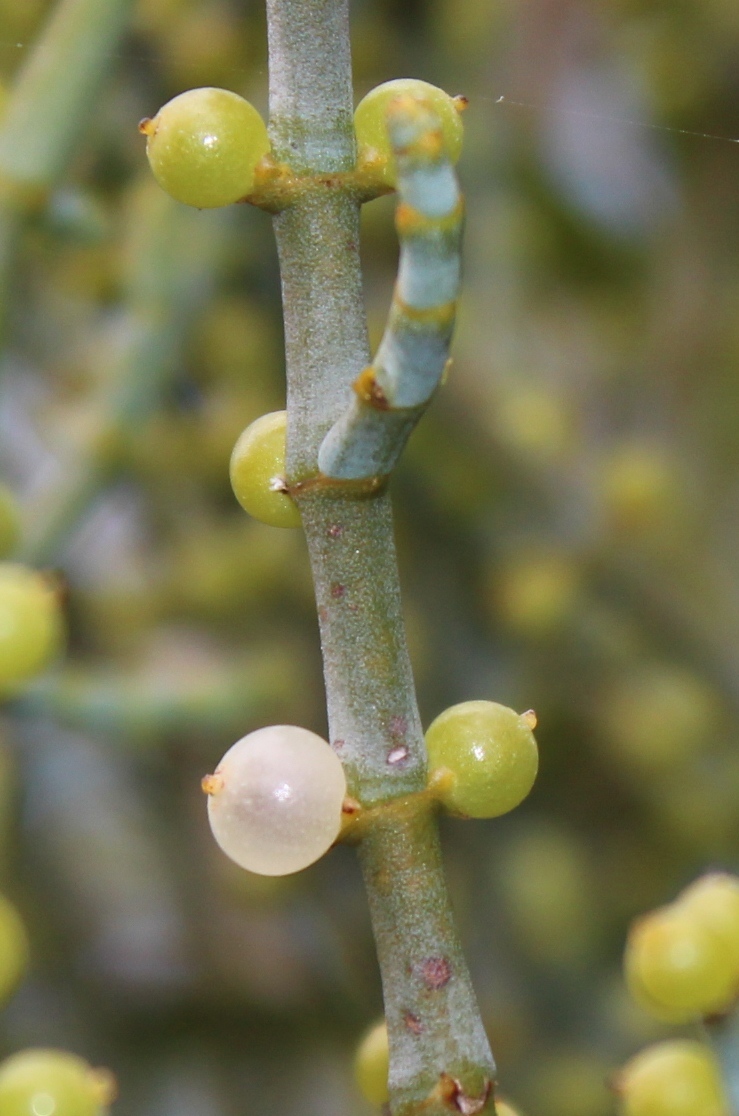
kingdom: Plantae
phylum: Tracheophyta
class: Magnoliopsida
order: Santalales
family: Viscaceae
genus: Viscum
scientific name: Viscum capense
